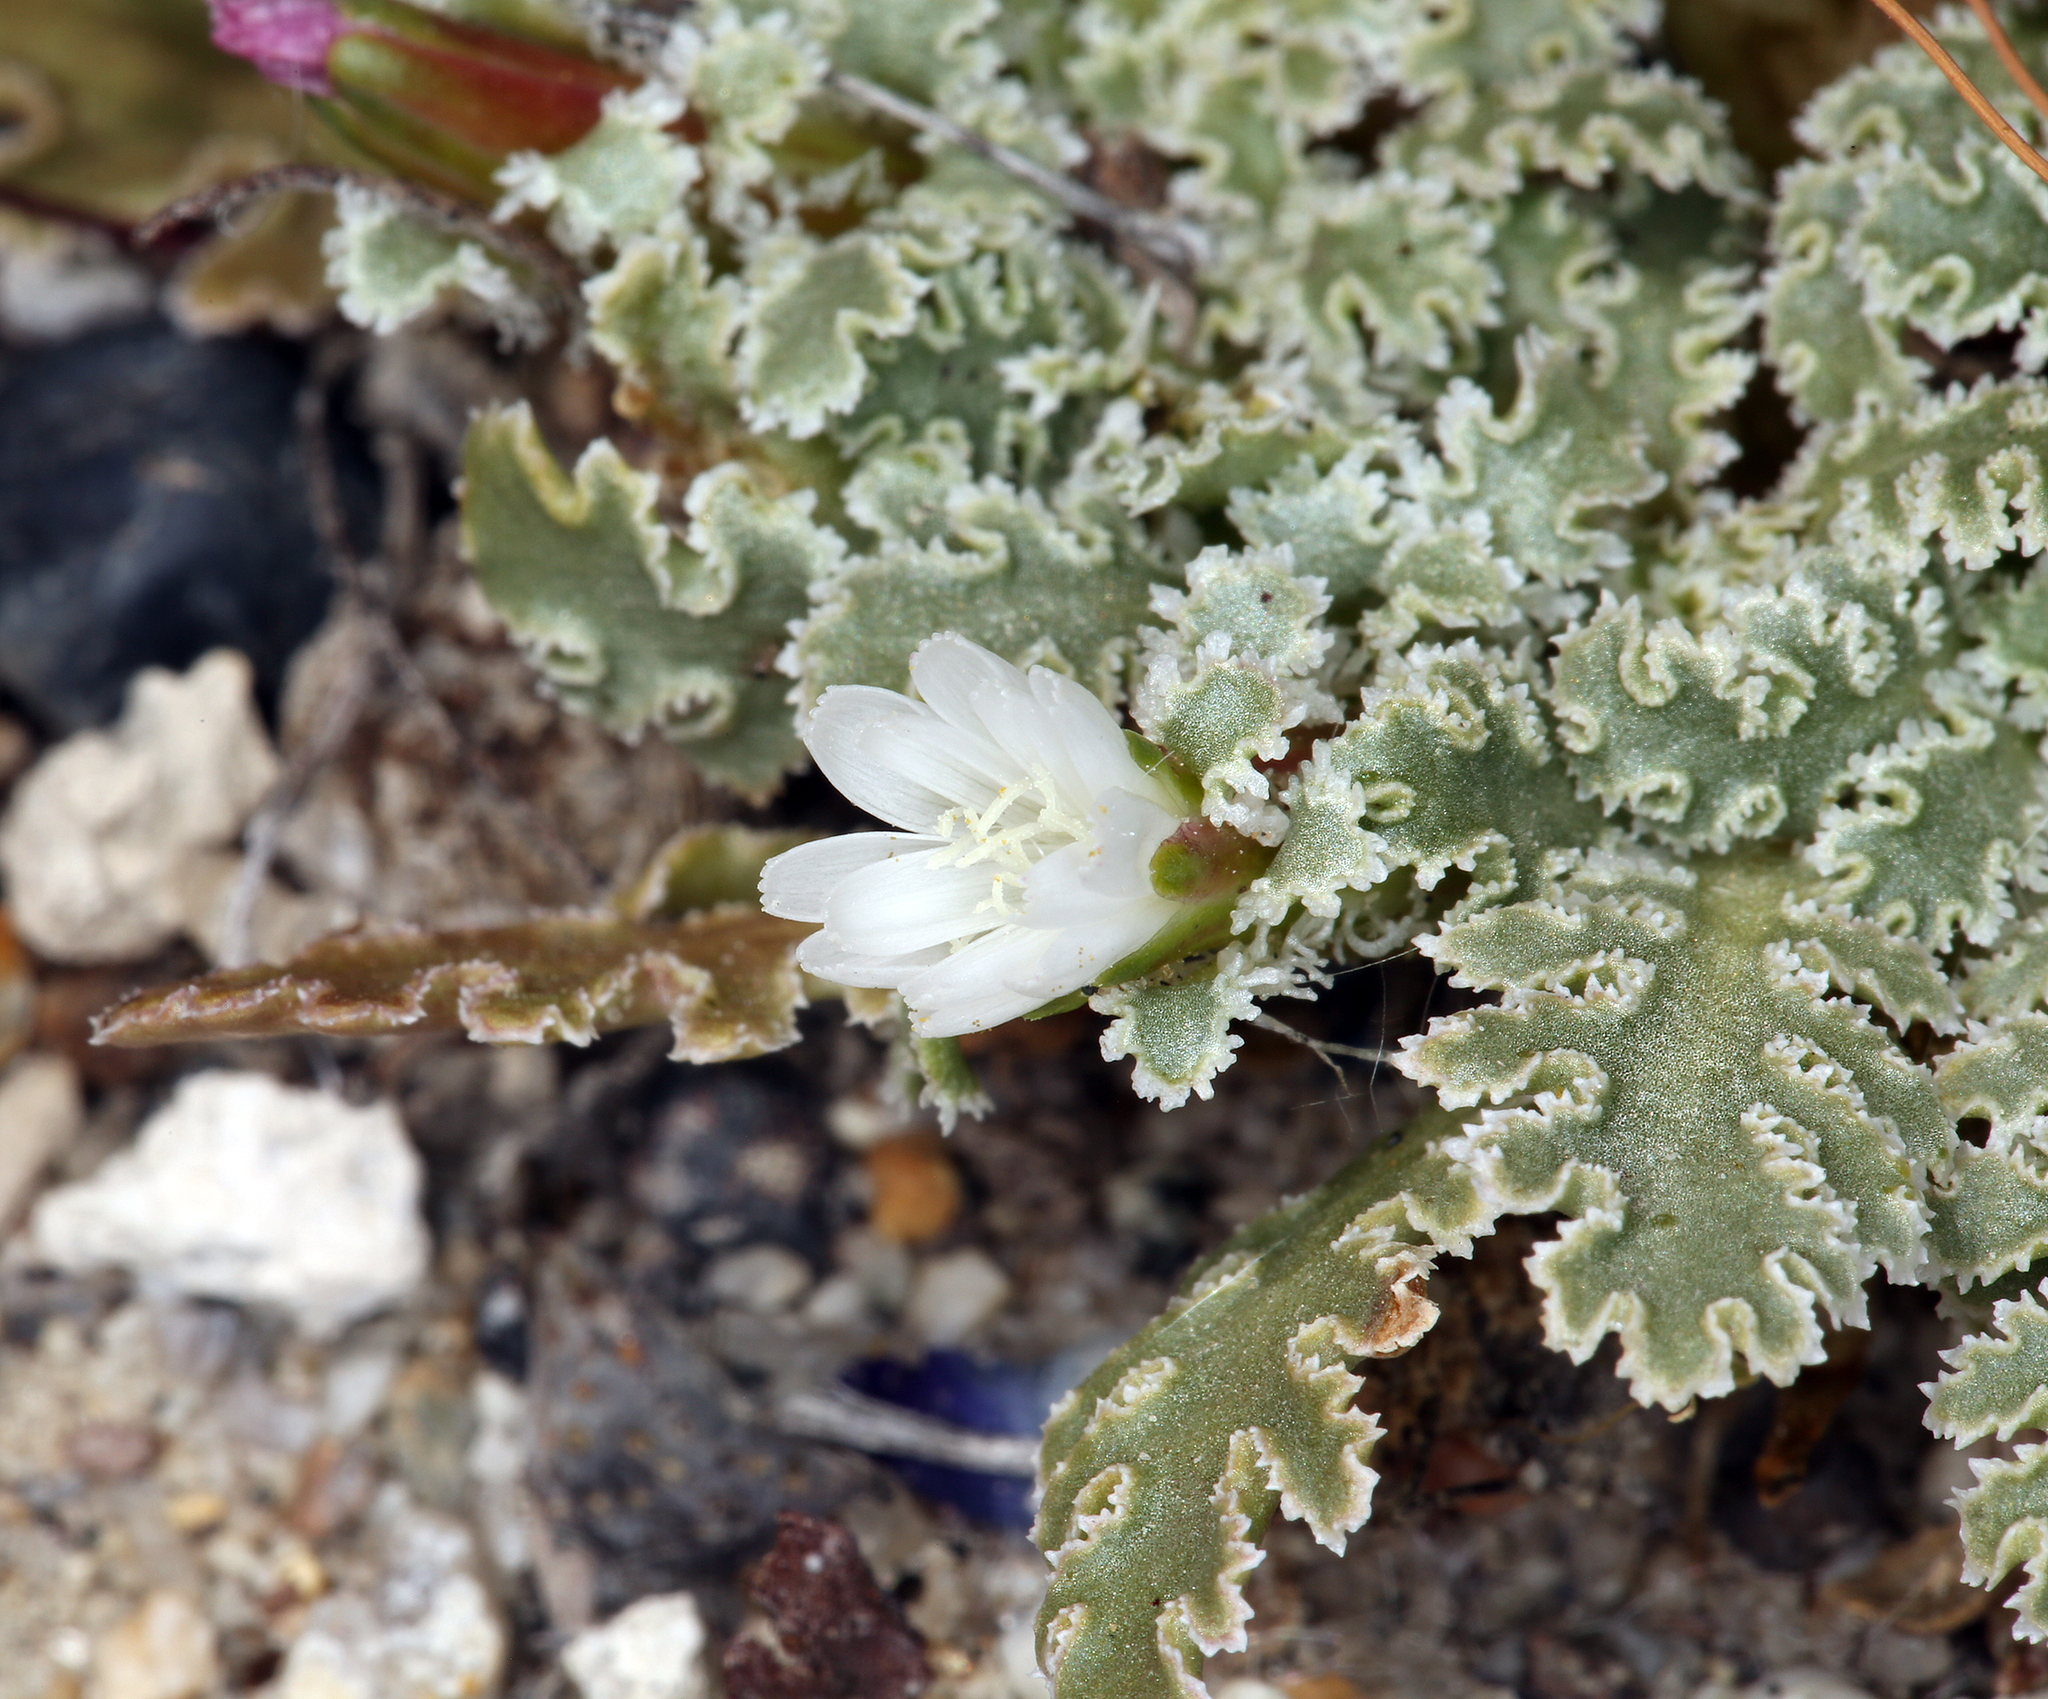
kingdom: Plantae
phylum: Tracheophyta
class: Magnoliopsida
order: Asterales
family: Asteraceae
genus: Glyptopleura
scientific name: Glyptopleura marginata
